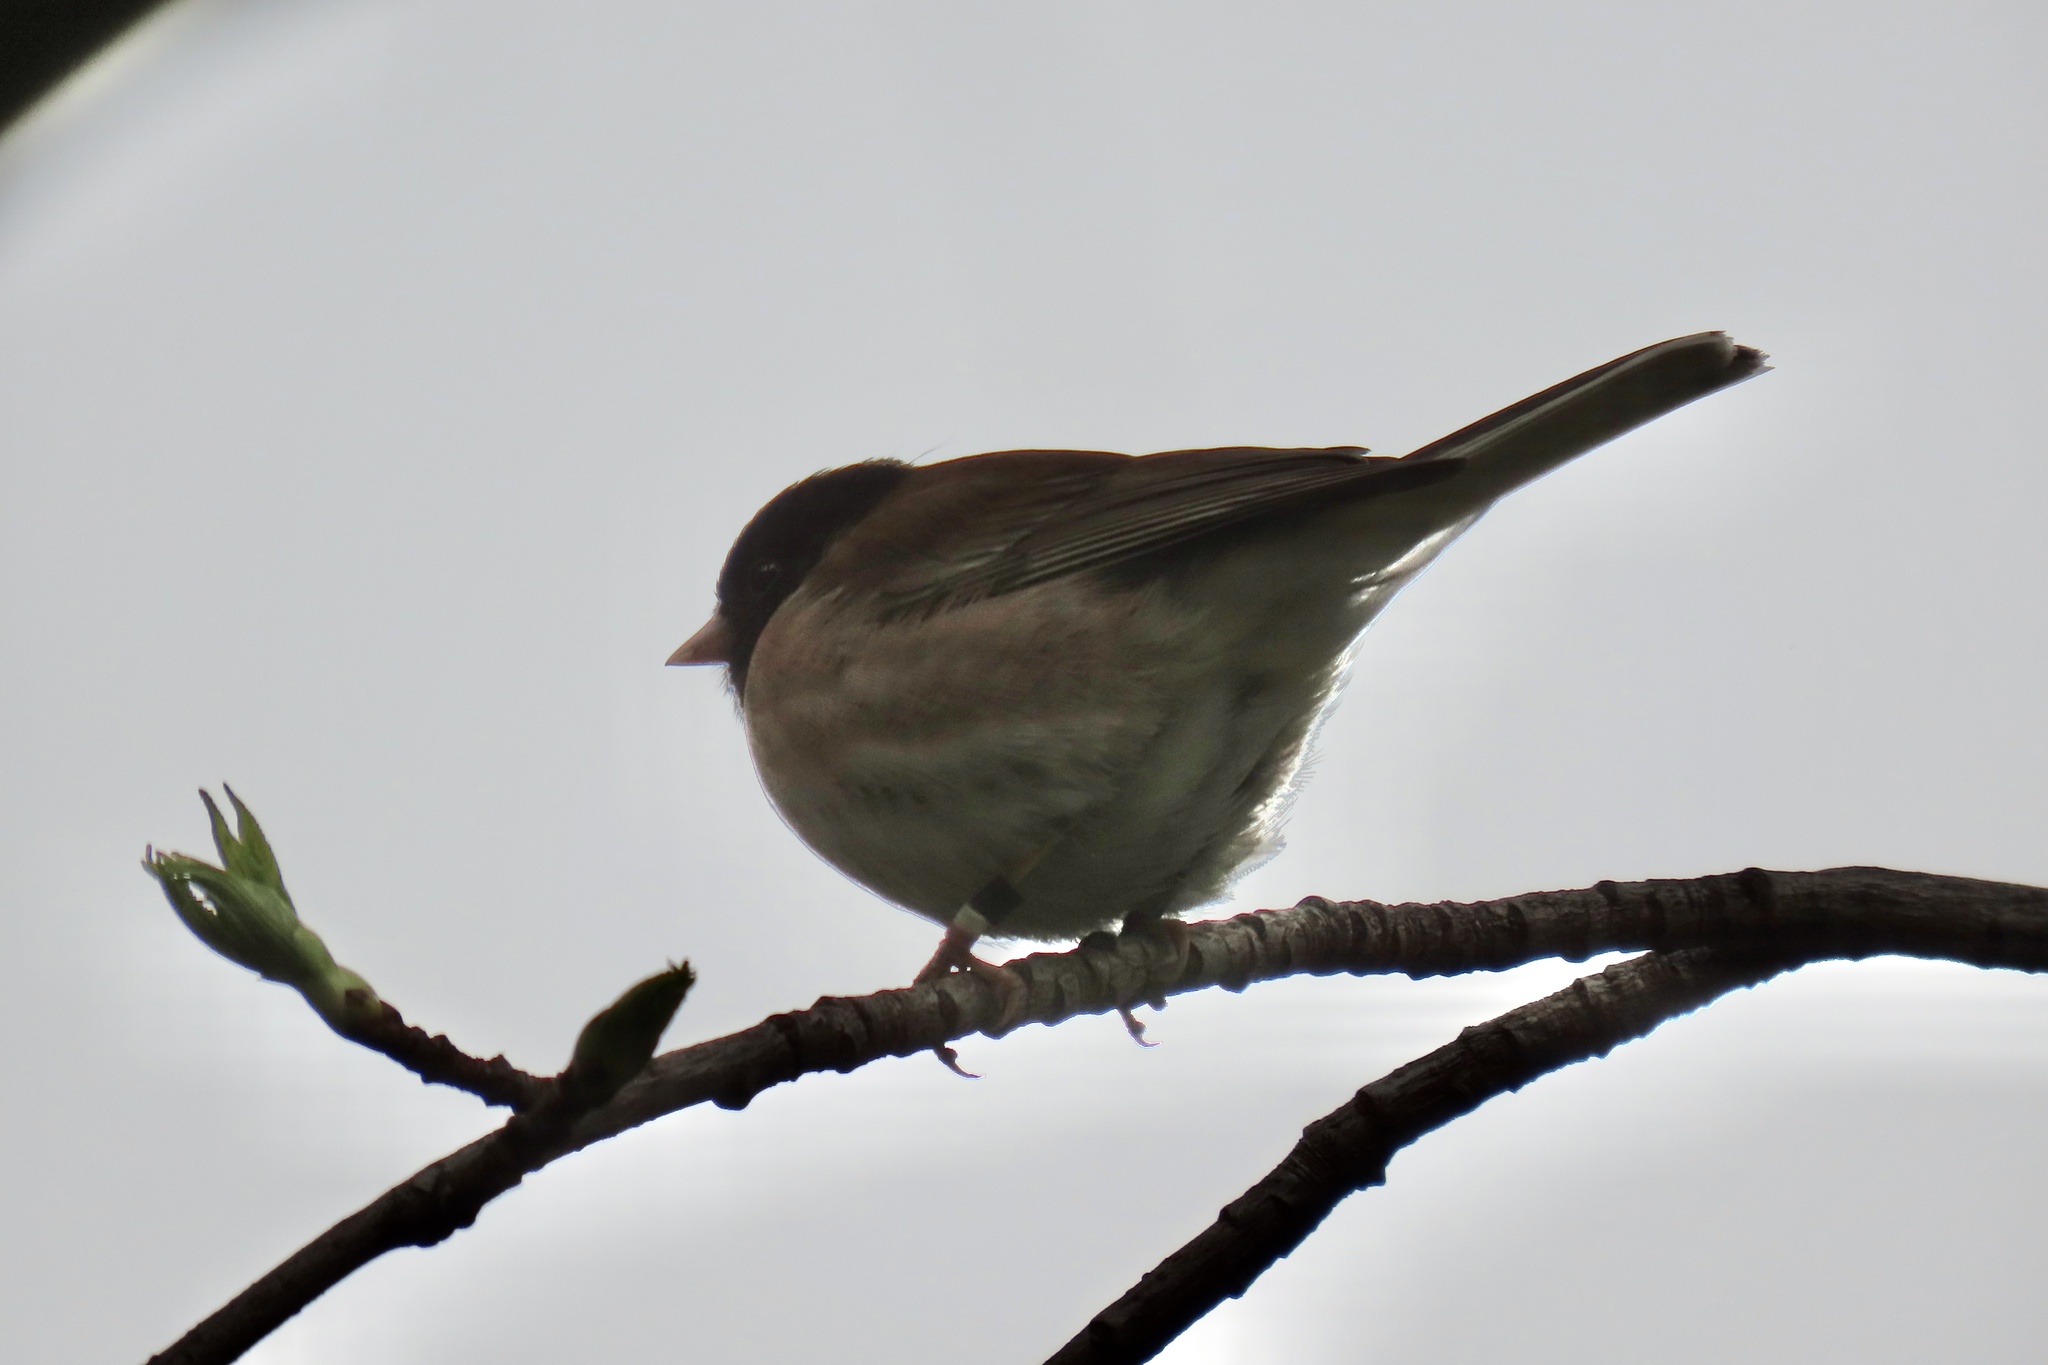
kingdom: Animalia
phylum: Chordata
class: Aves
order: Passeriformes
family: Passerellidae
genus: Junco
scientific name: Junco hyemalis
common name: Dark-eyed junco
